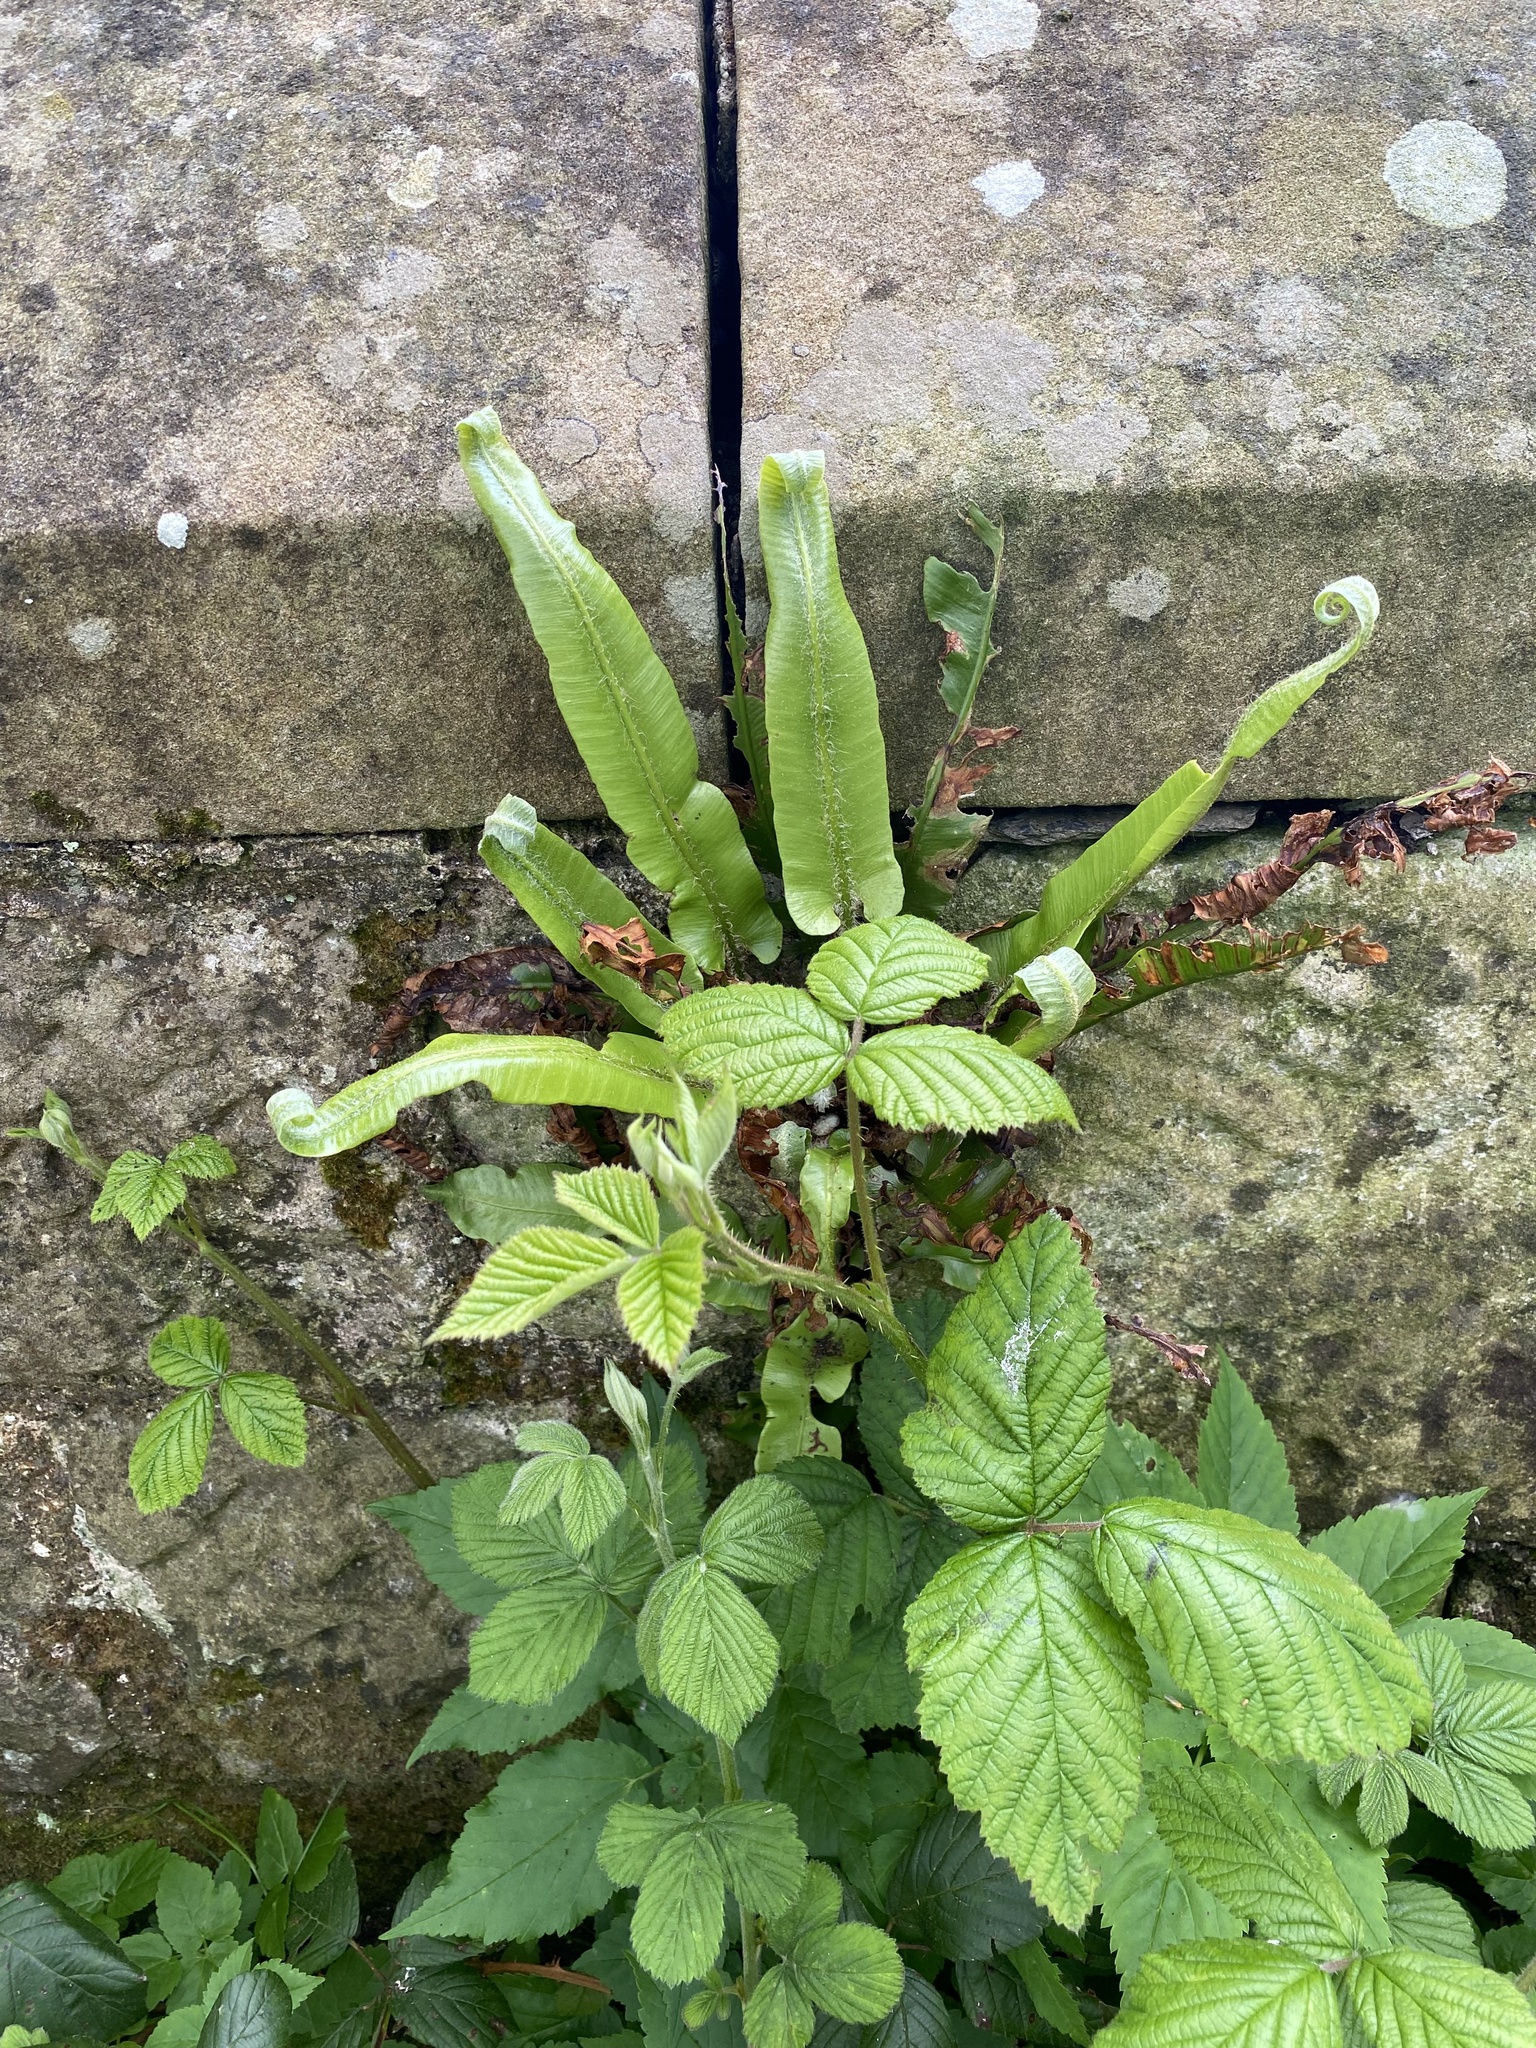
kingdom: Plantae
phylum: Tracheophyta
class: Polypodiopsida
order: Polypodiales
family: Aspleniaceae
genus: Asplenium
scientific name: Asplenium scolopendrium
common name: Hart's-tongue fern
